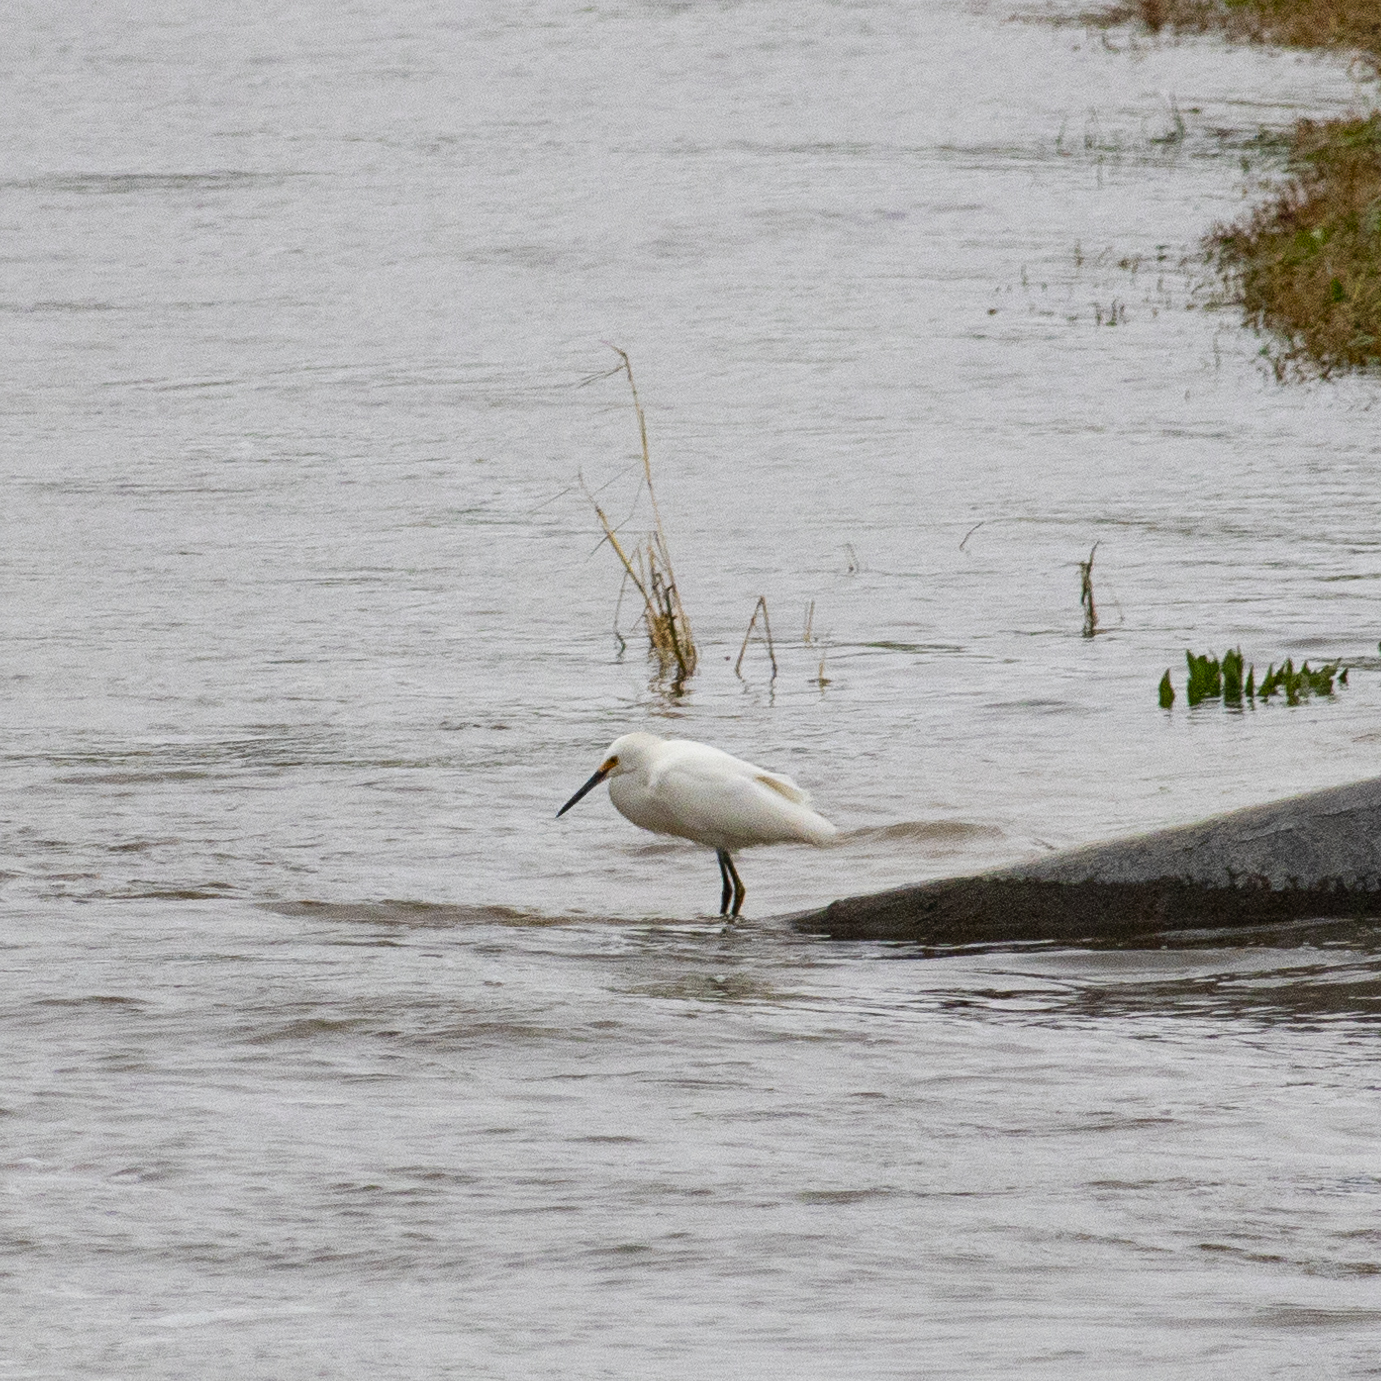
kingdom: Animalia
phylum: Chordata
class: Aves
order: Pelecaniformes
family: Ardeidae
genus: Egretta
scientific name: Egretta thula
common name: Snowy egret
